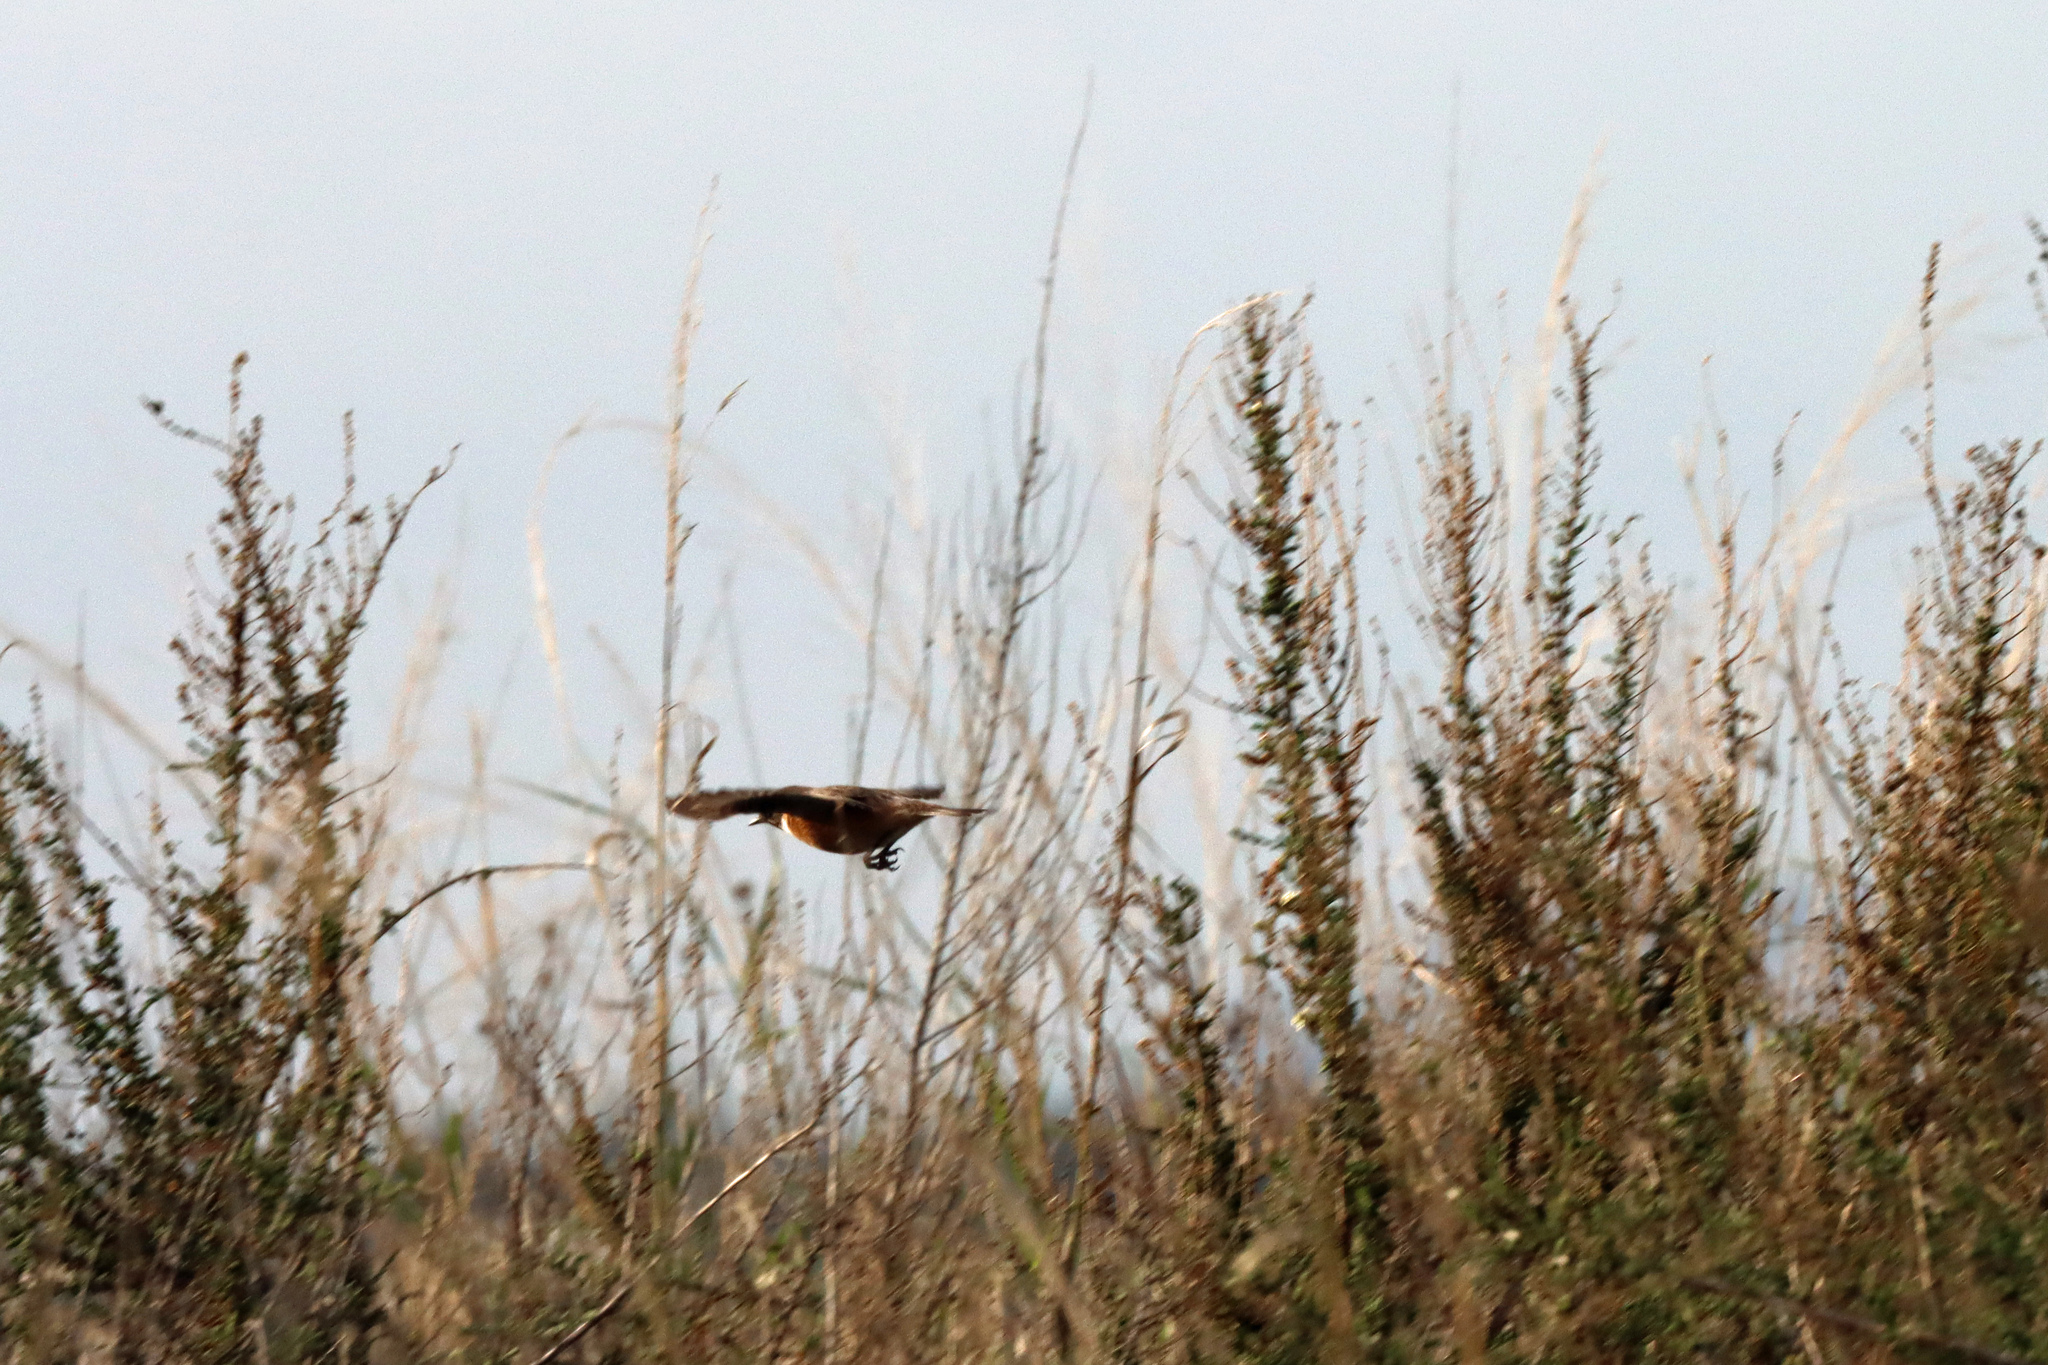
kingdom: Animalia
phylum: Chordata
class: Aves
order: Passeriformes
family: Muscicapidae
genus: Saxicola
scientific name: Saxicola rubicola
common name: European stonechat
